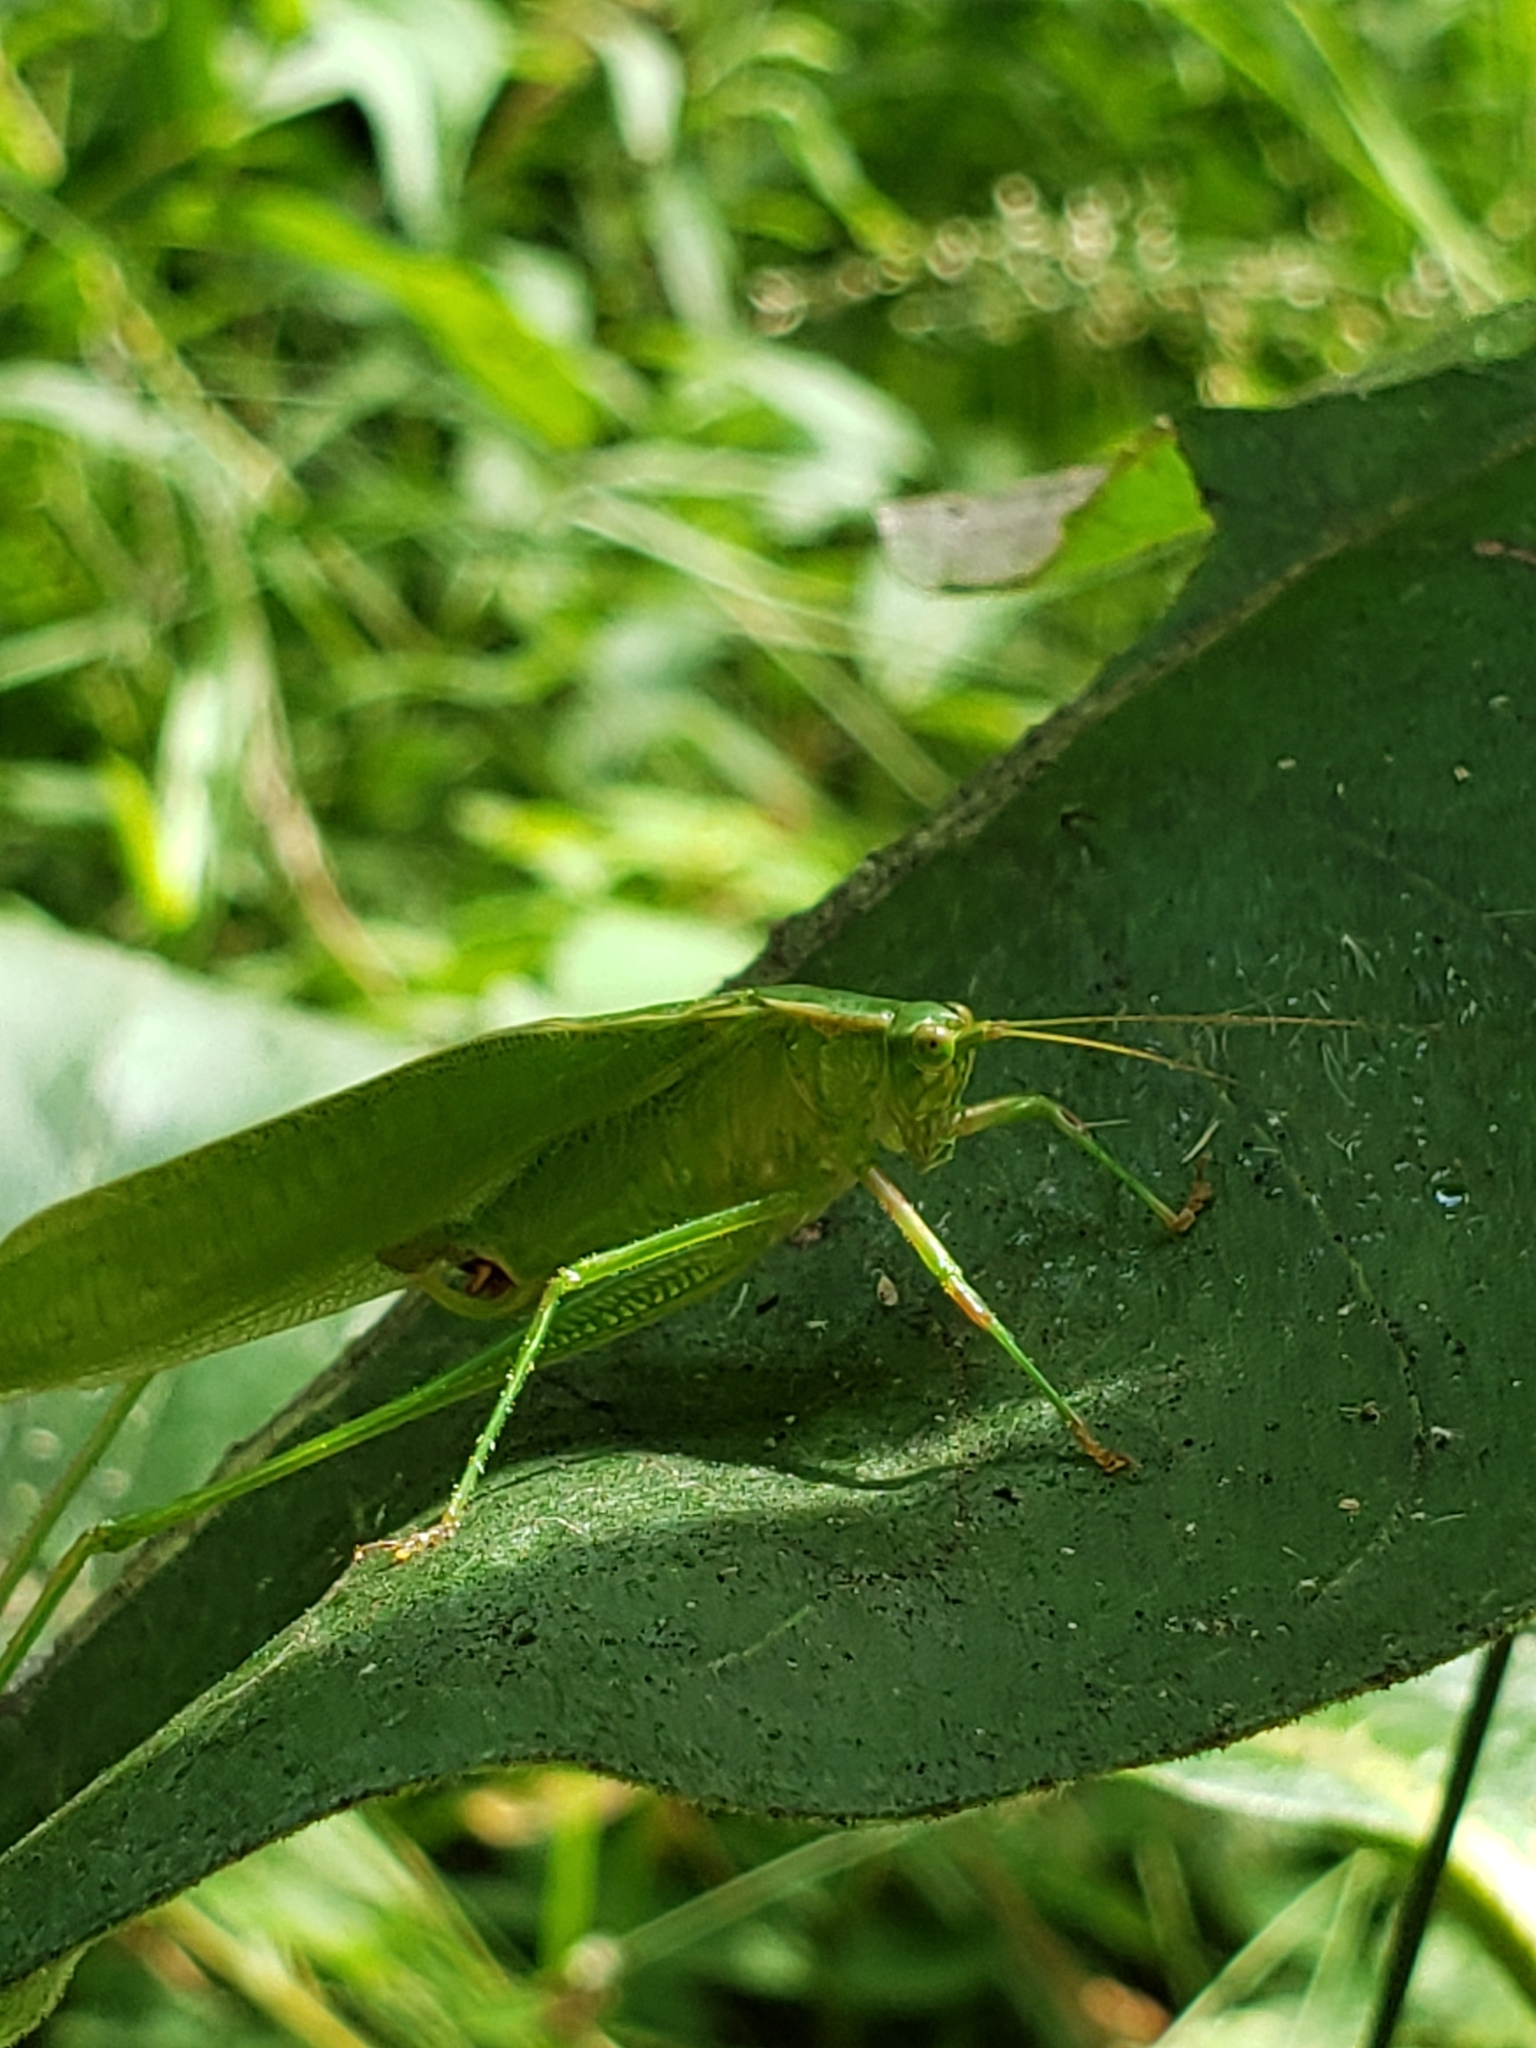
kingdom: Animalia
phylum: Arthropoda
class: Insecta
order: Orthoptera
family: Tettigoniidae
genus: Scudderia
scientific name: Scudderia furcata
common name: Fork-tailed bush katydid
